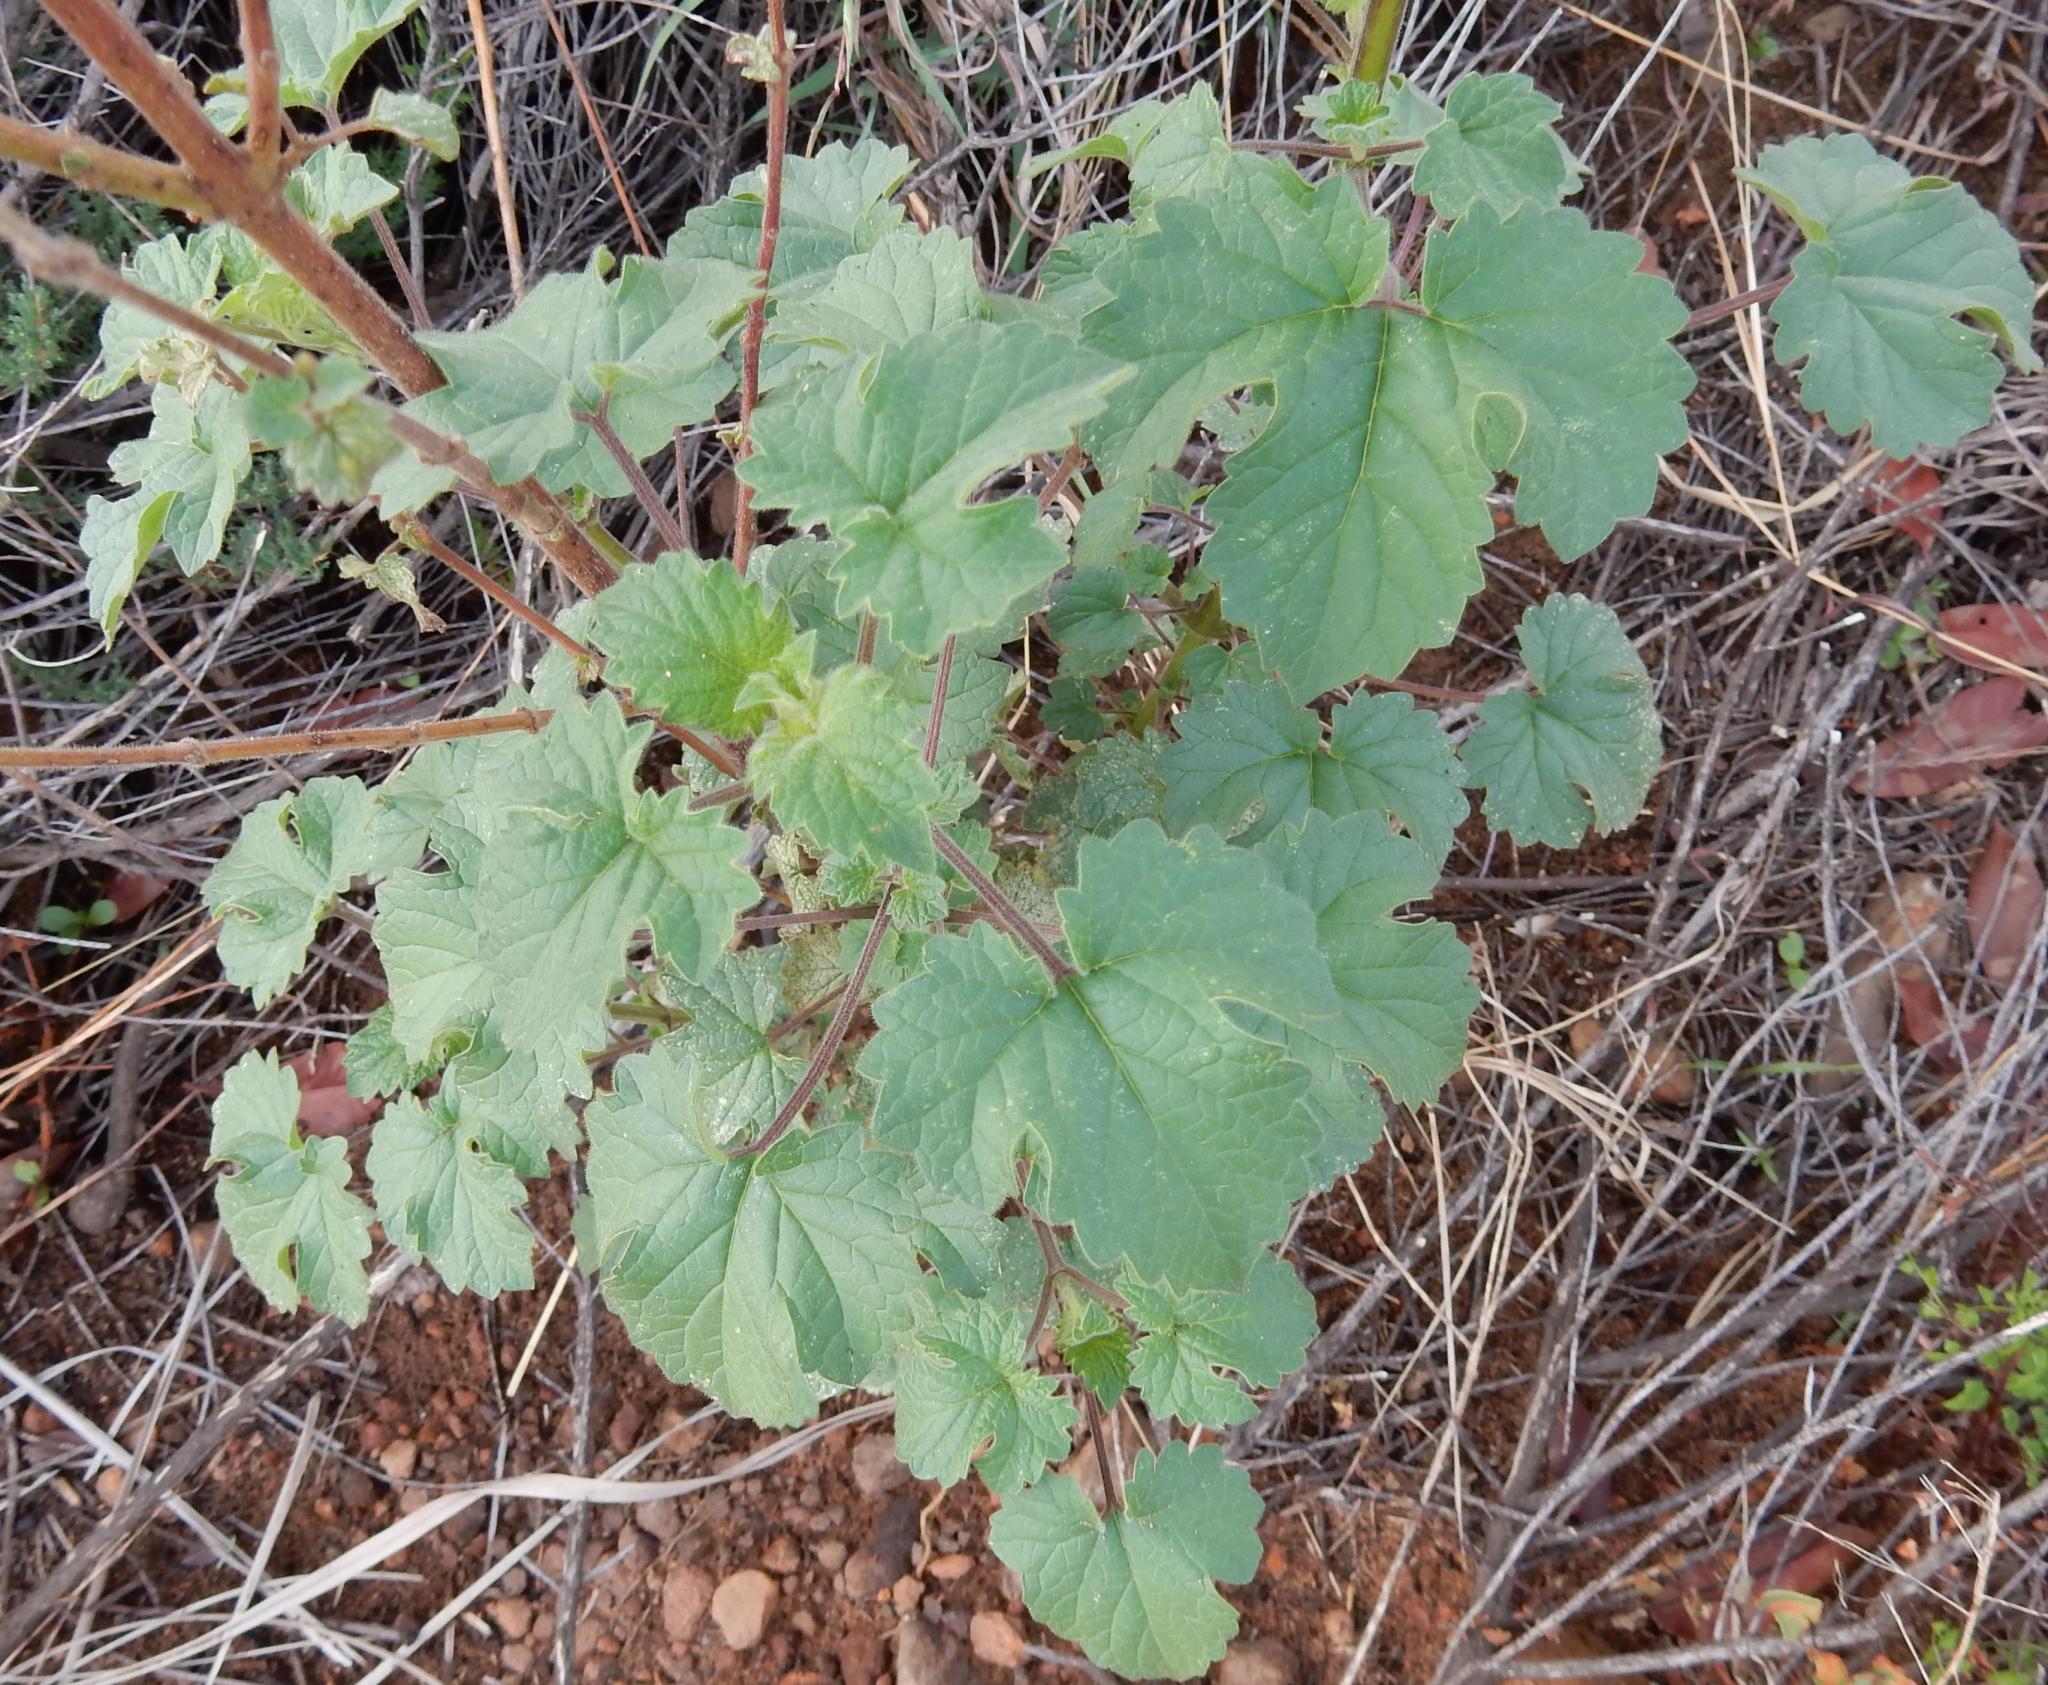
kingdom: Plantae
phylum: Tracheophyta
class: Magnoliopsida
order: Lamiales
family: Pedaliaceae
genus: Sesamum
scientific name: Sesamum trilobum
